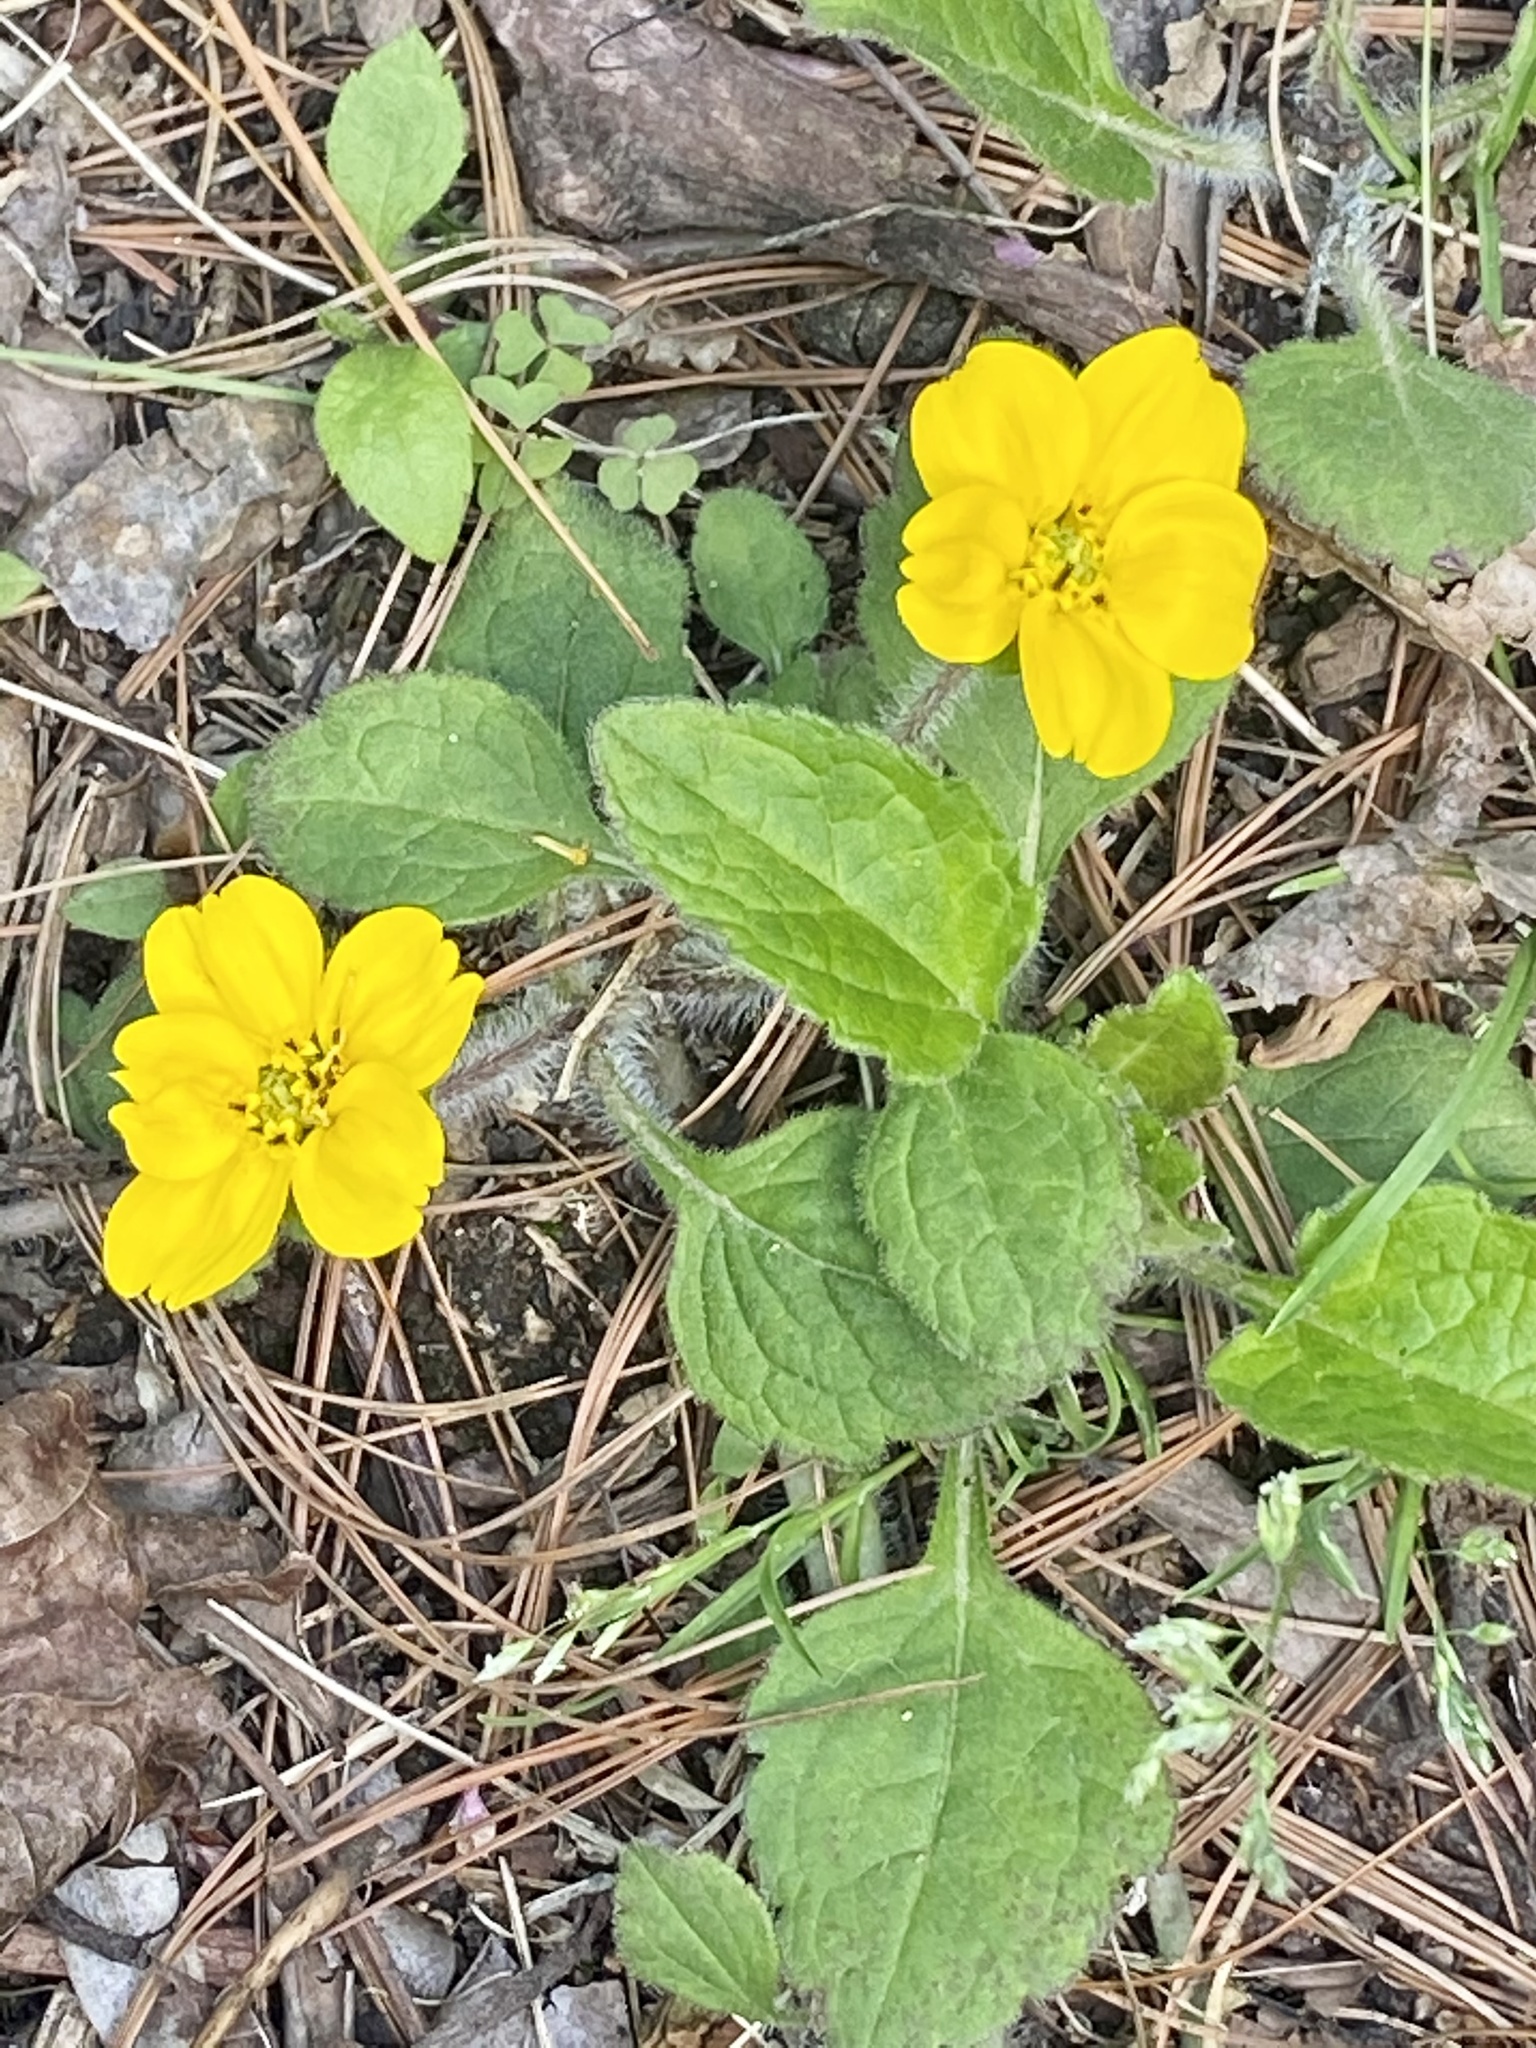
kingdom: Plantae
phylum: Tracheophyta
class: Magnoliopsida
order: Asterales
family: Asteraceae
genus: Chrysogonum
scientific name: Chrysogonum virginianum
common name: Golden-knee
